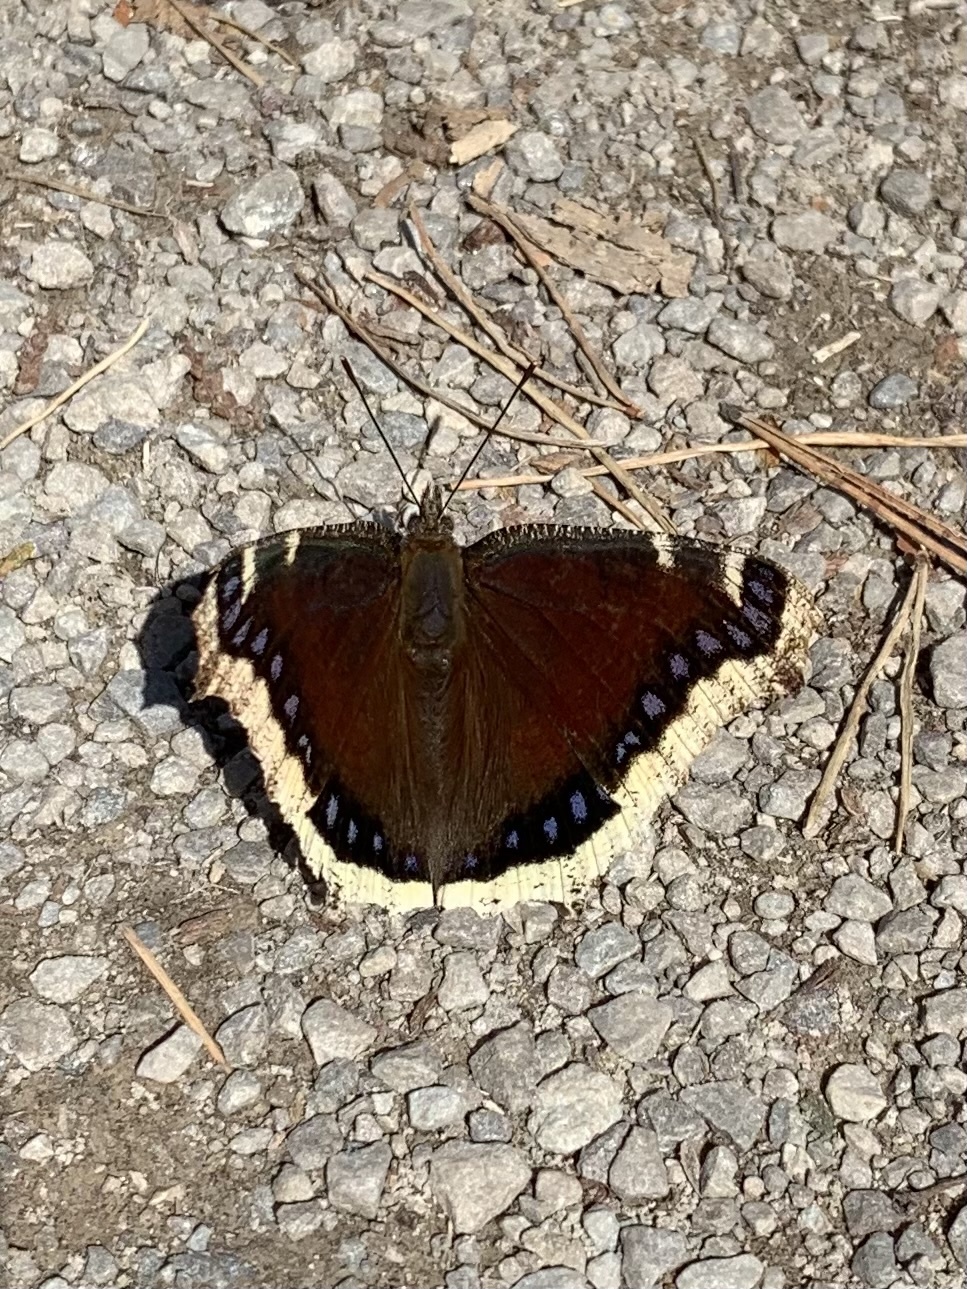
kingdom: Animalia
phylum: Arthropoda
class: Insecta
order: Lepidoptera
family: Nymphalidae
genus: Nymphalis
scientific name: Nymphalis antiopa
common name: Camberwell beauty
